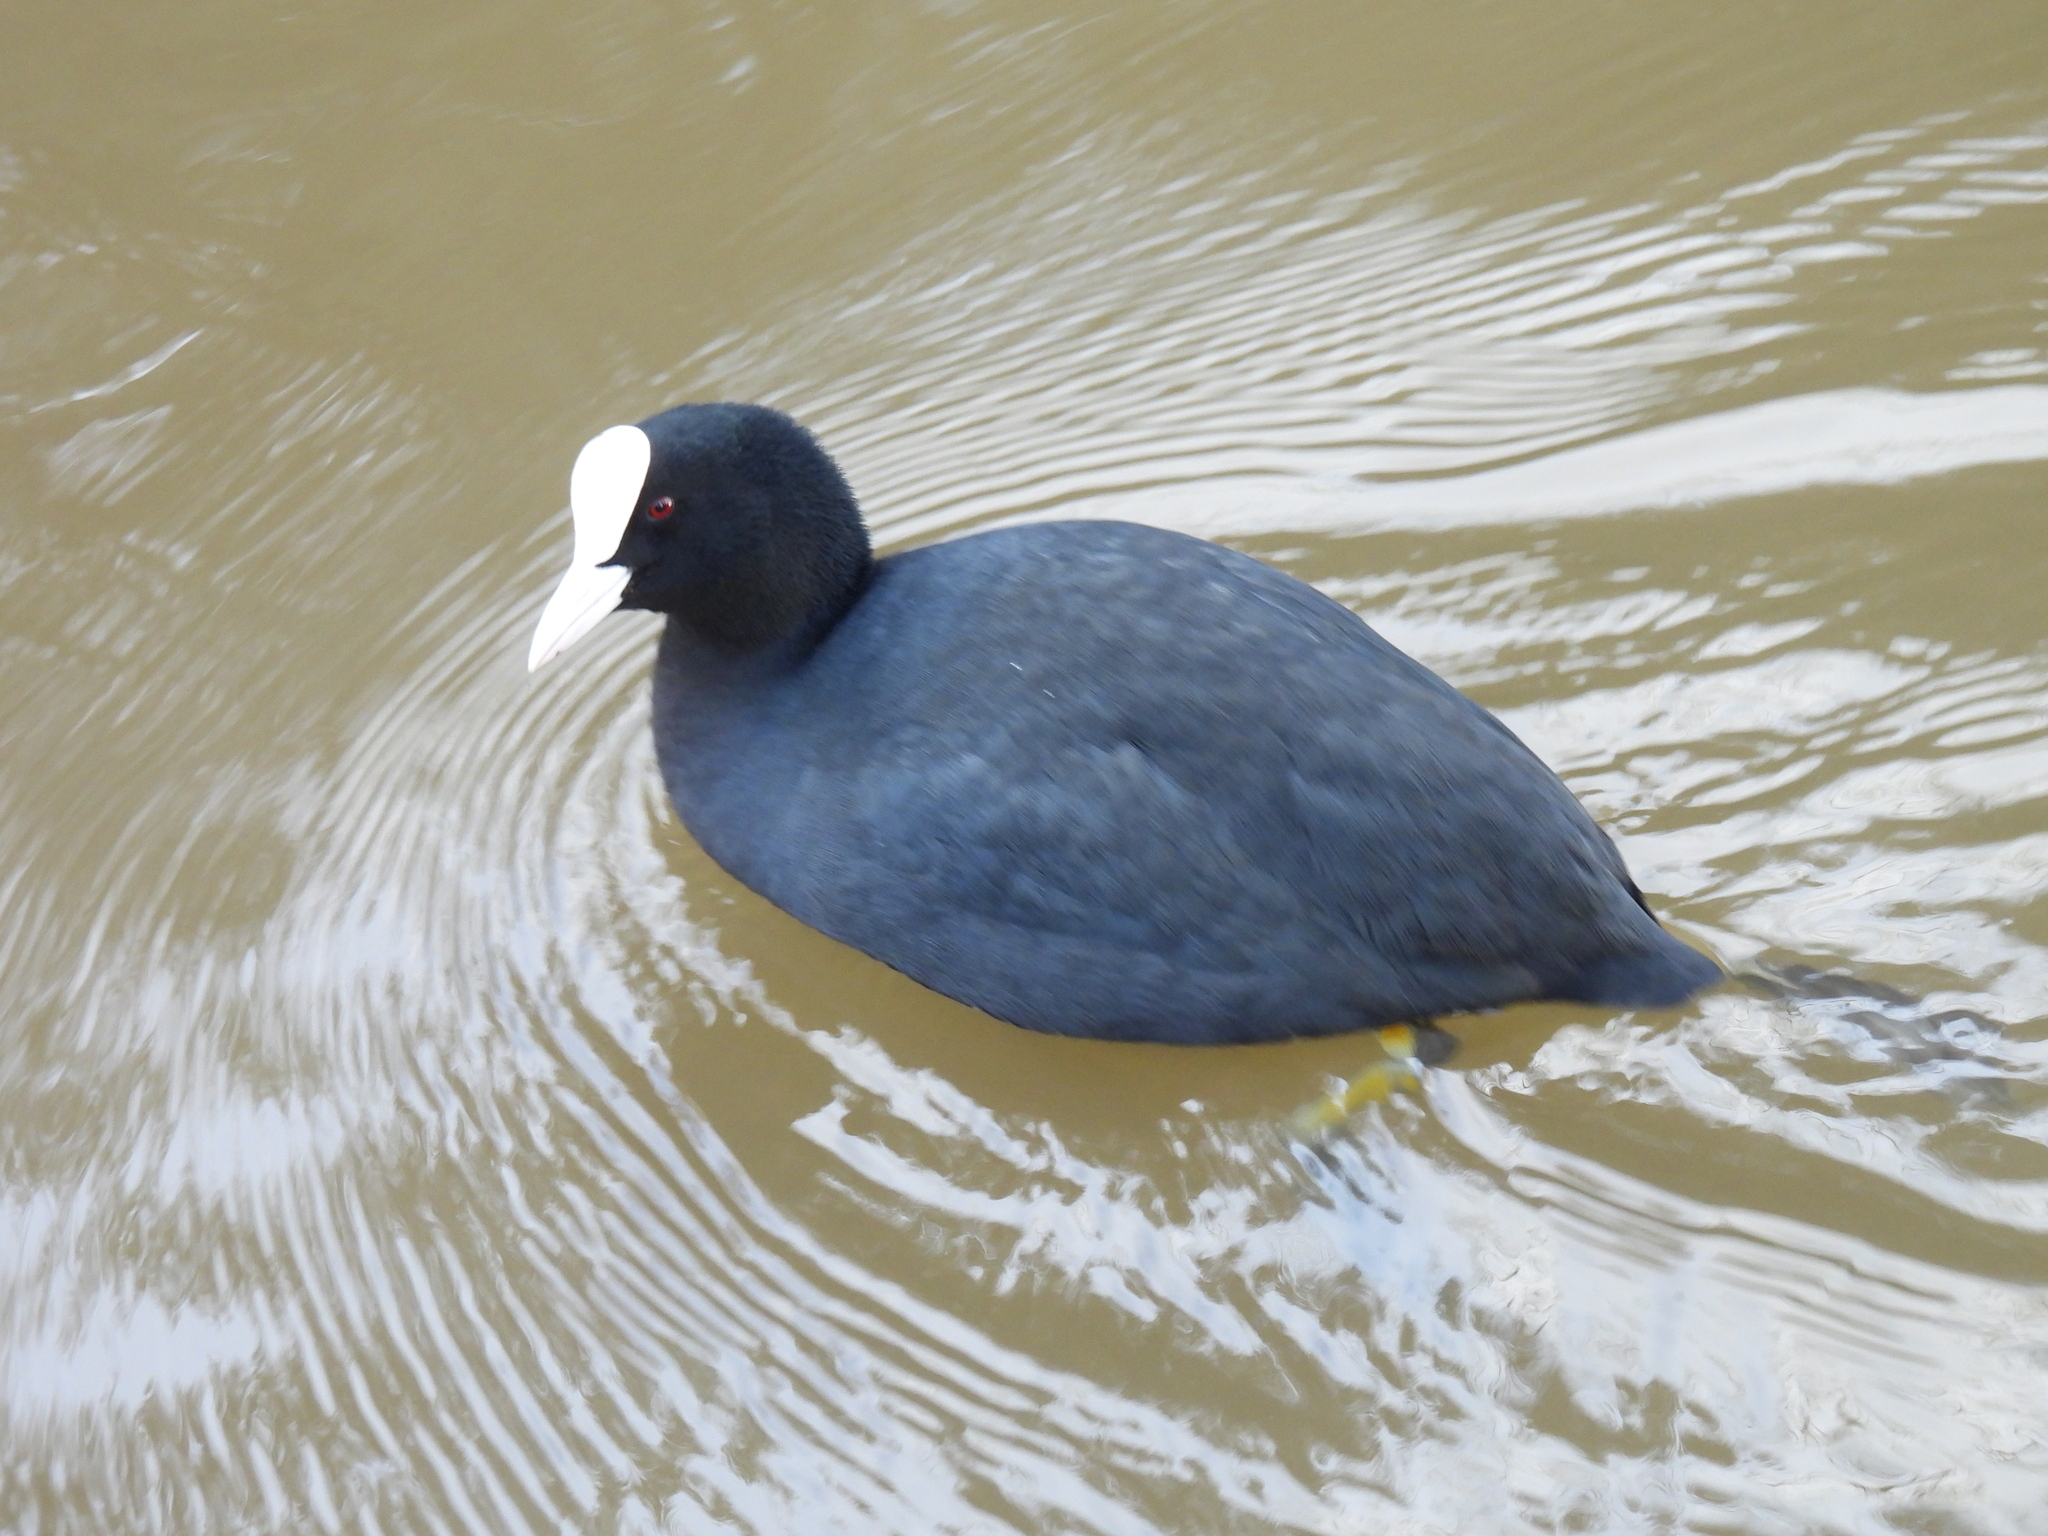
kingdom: Animalia
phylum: Chordata
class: Aves
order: Gruiformes
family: Rallidae
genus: Fulica
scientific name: Fulica atra
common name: Eurasian coot
